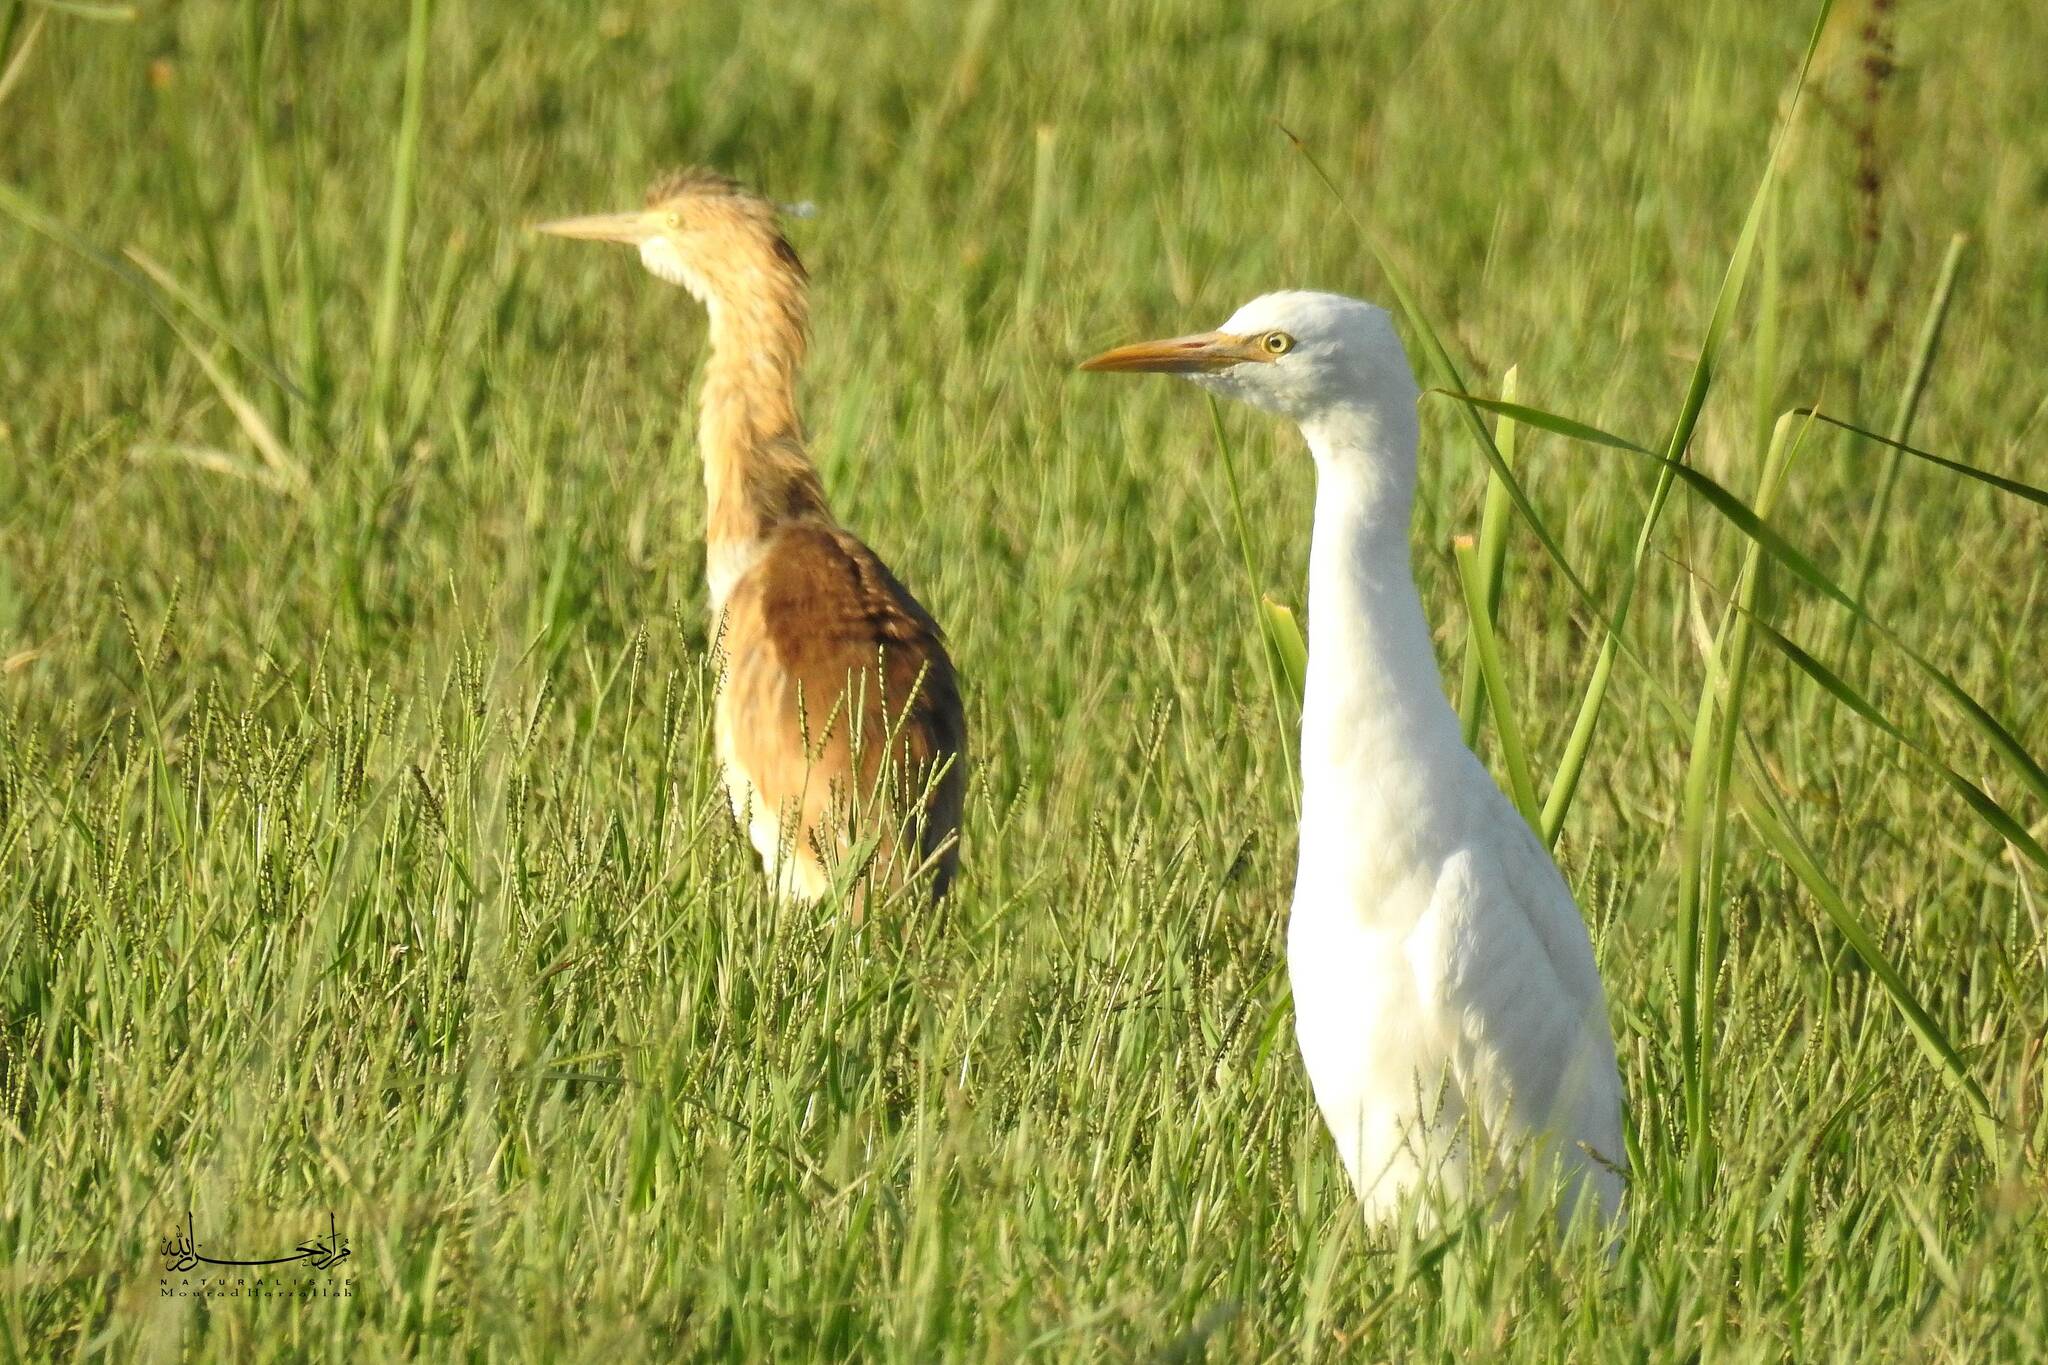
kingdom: Animalia
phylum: Chordata
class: Aves
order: Pelecaniformes
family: Ardeidae
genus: Bubulcus
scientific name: Bubulcus ibis
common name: Cattle egret
